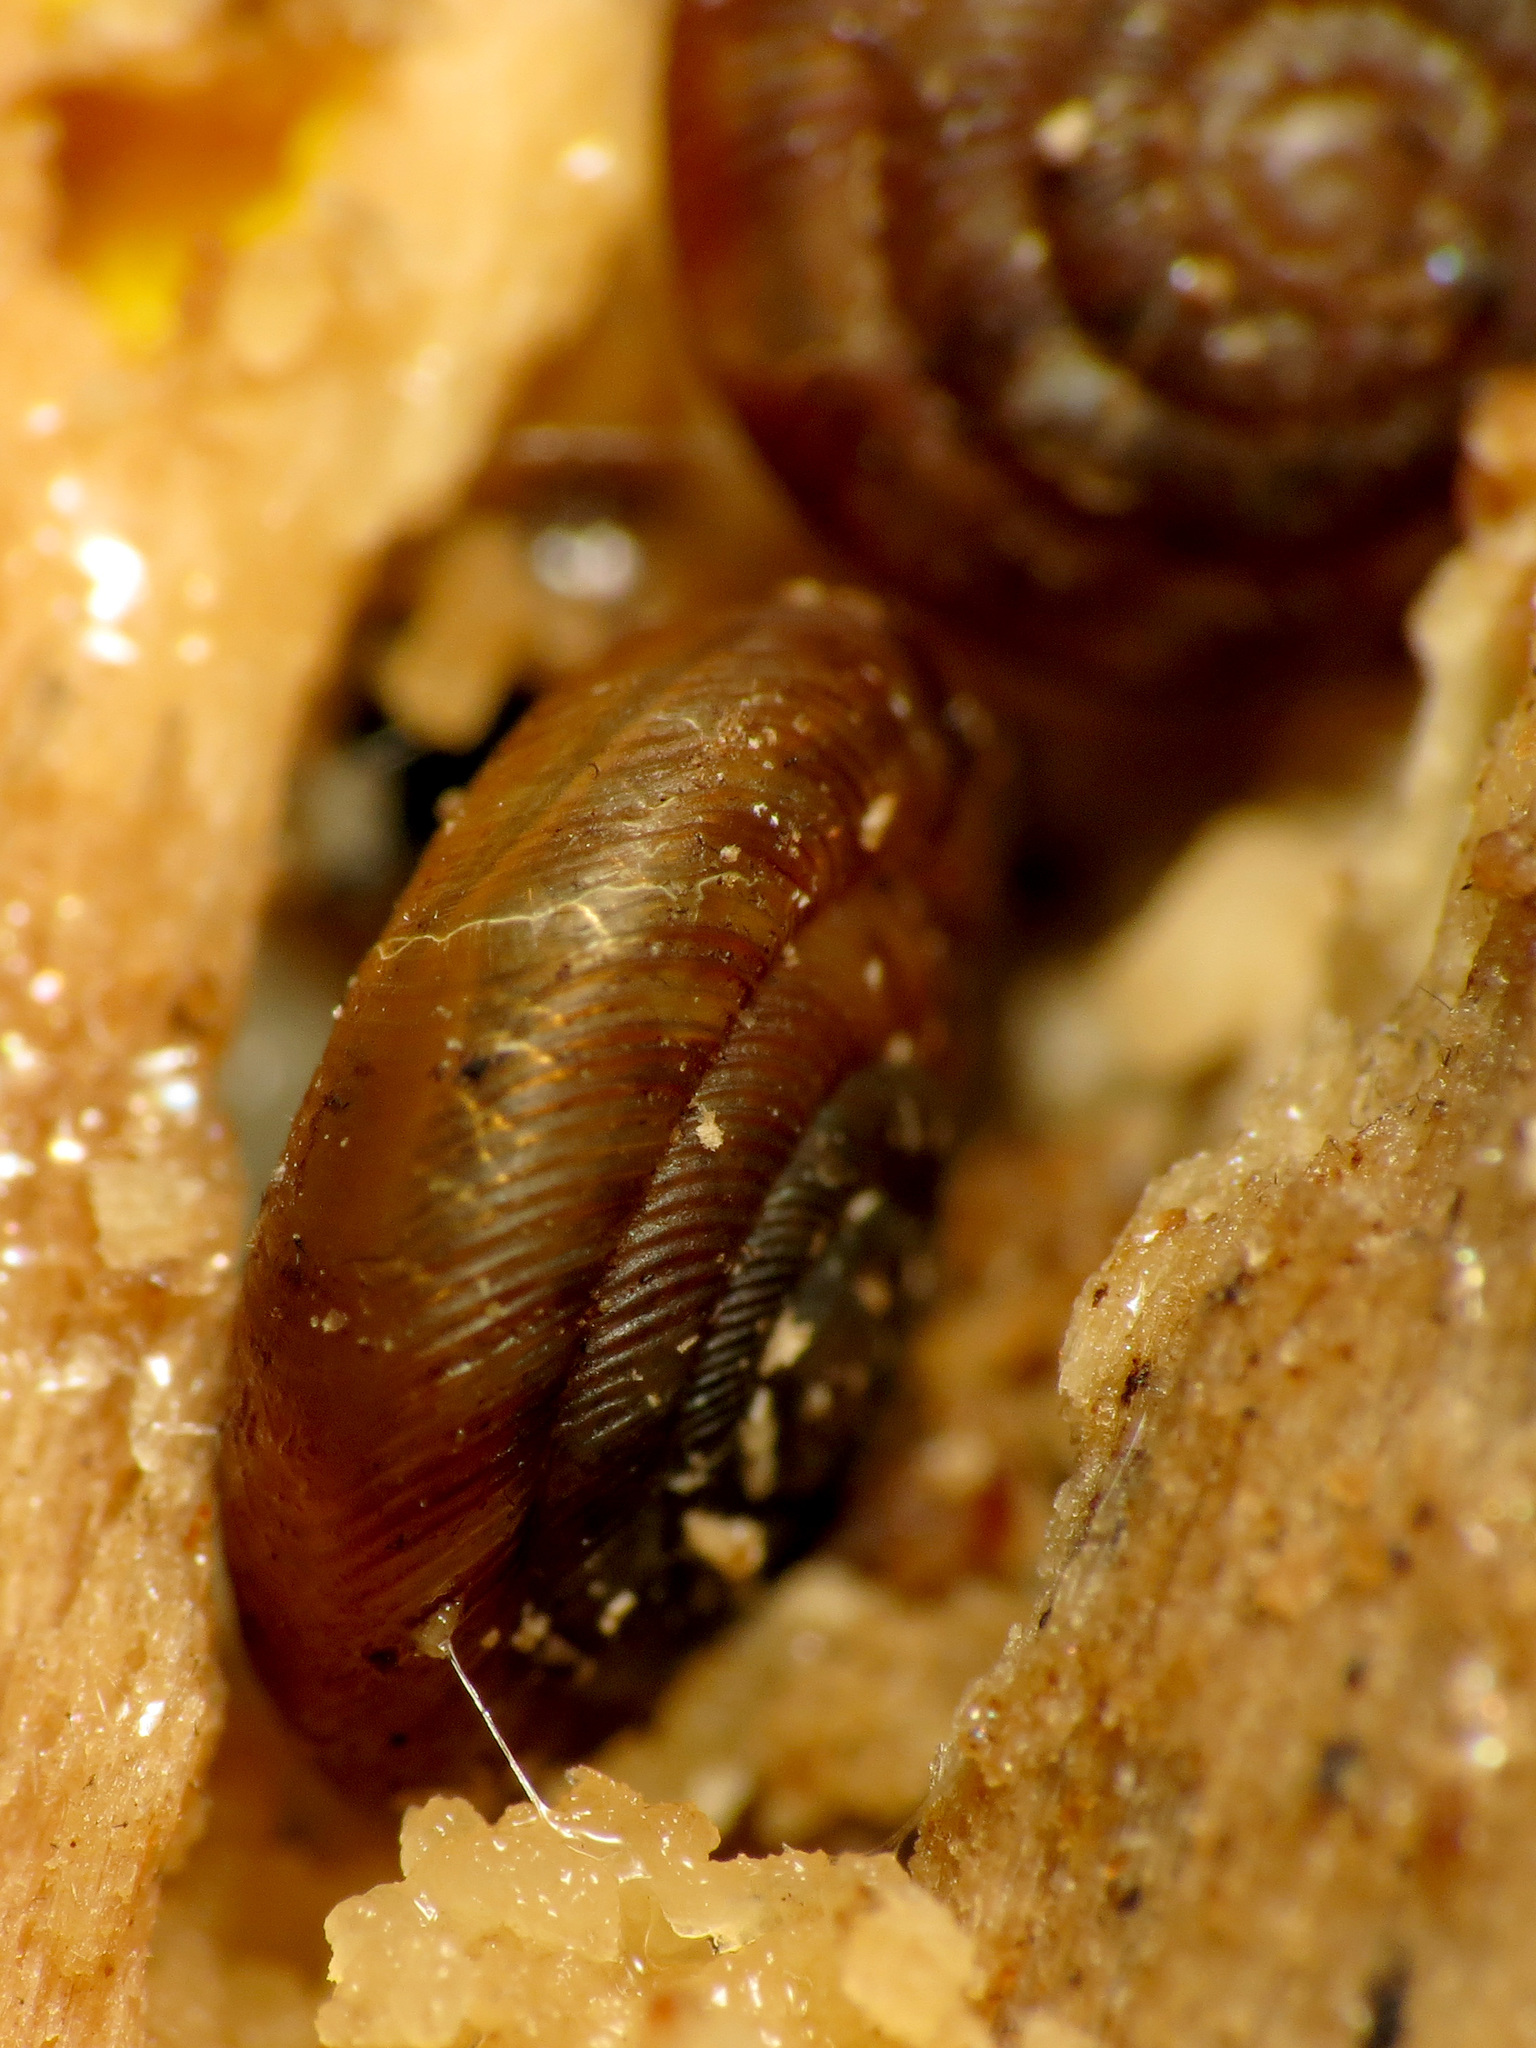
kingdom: Animalia
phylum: Mollusca
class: Gastropoda
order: Stylommatophora
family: Discidae
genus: Discus
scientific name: Discus rotundatus
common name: Rounded snail
